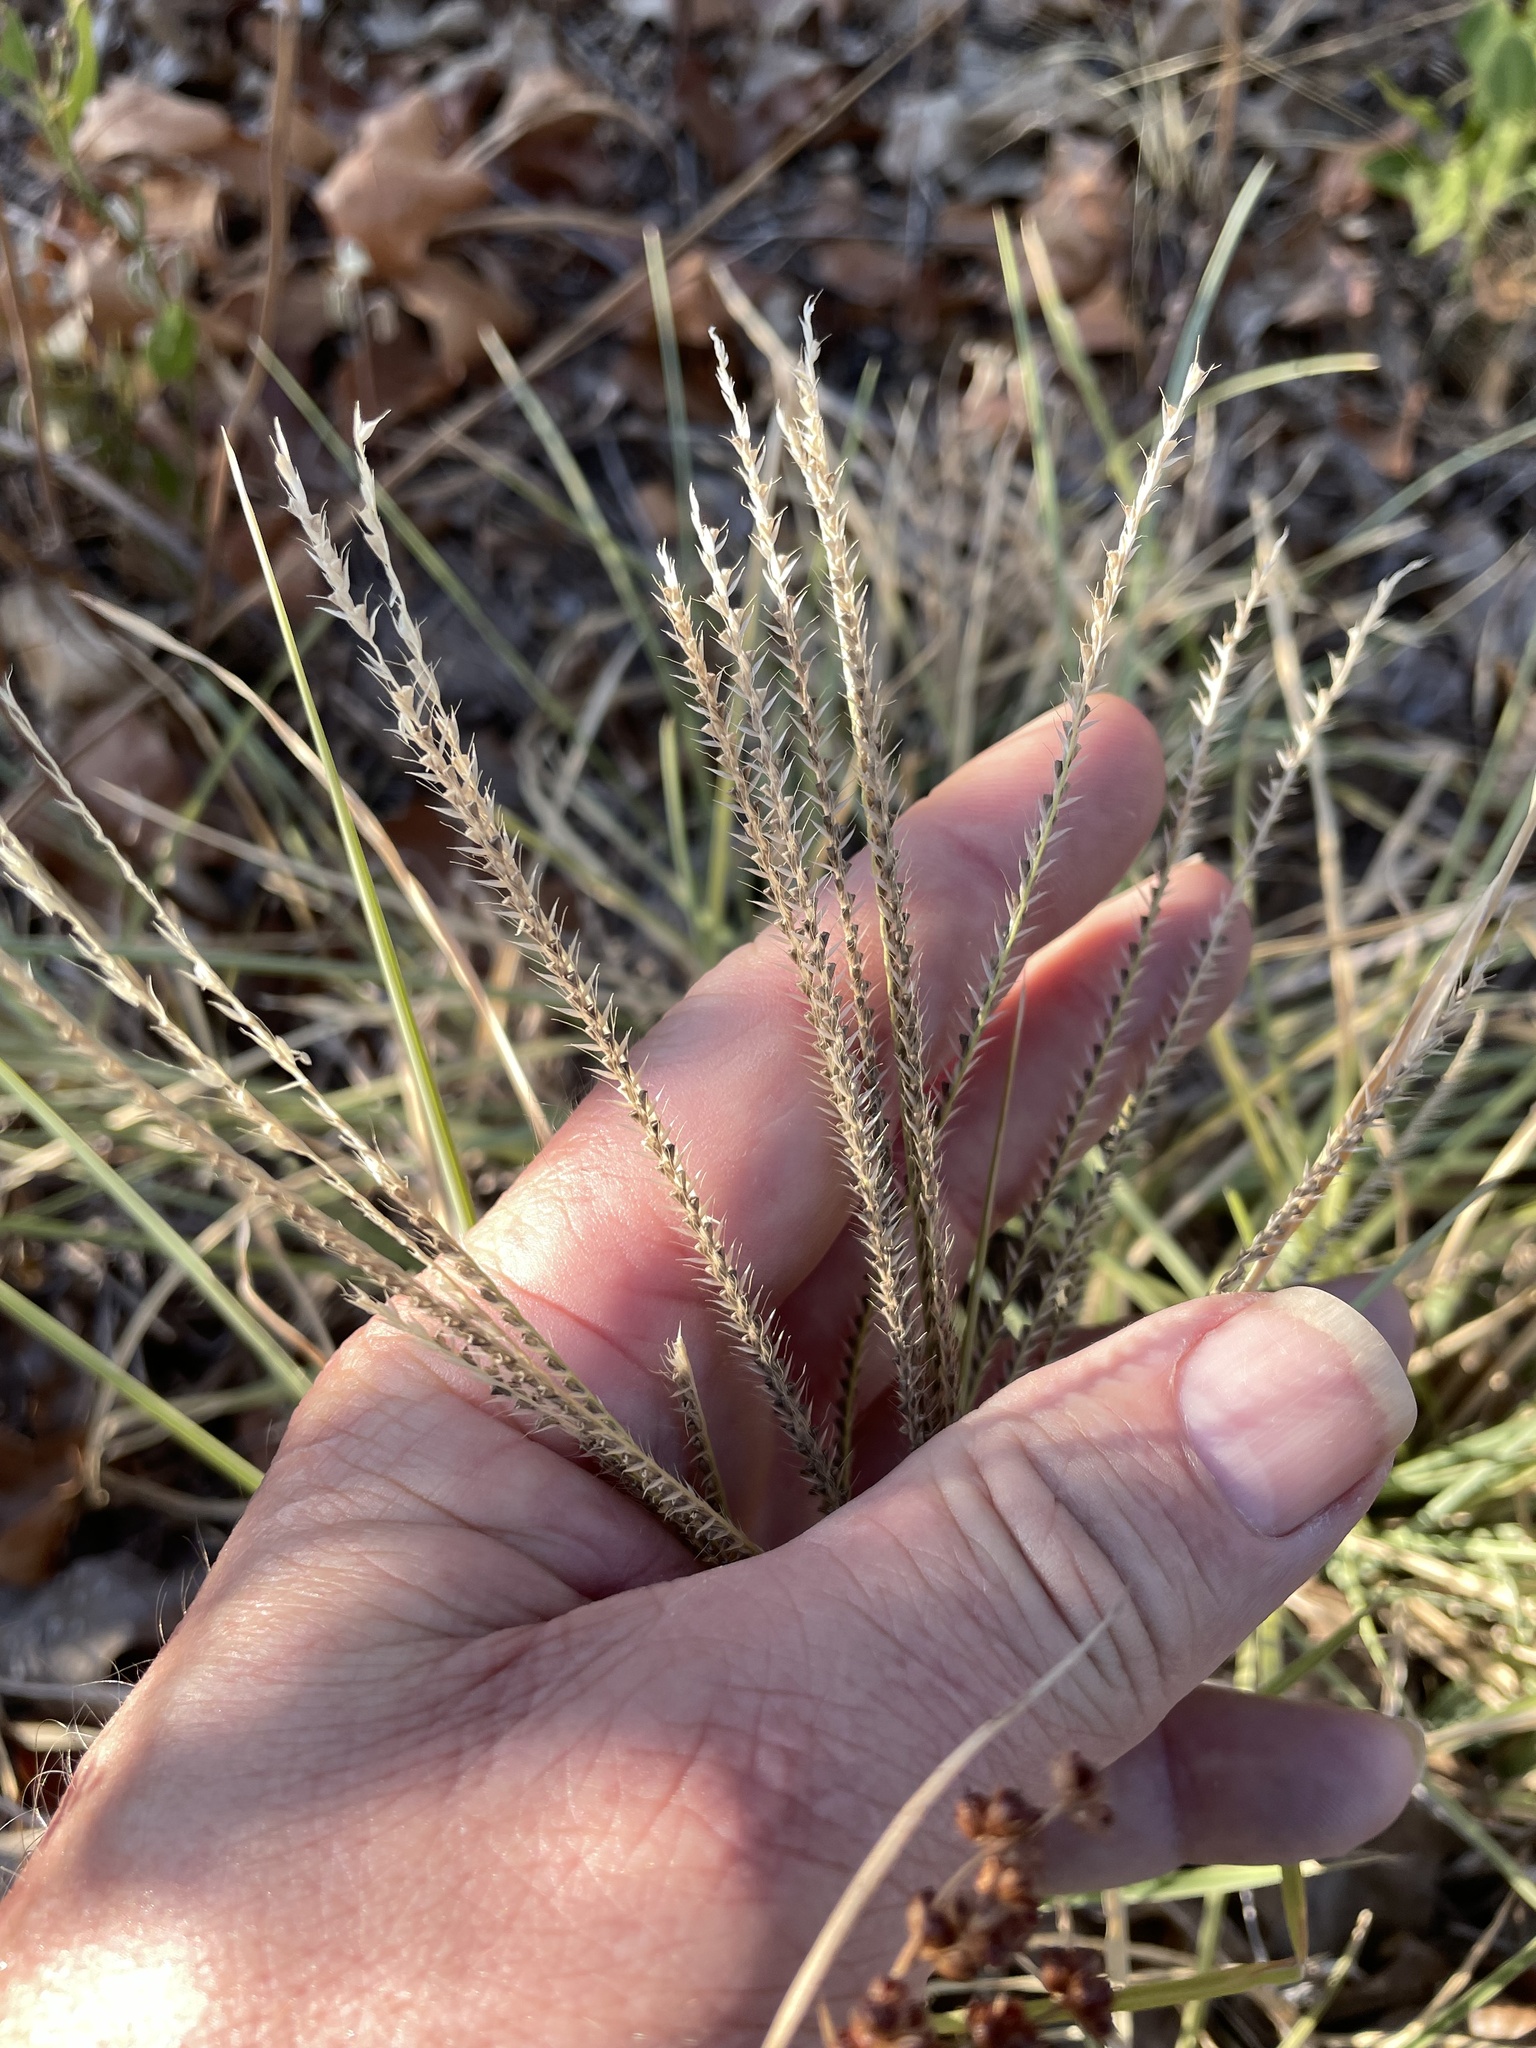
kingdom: Plantae
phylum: Tracheophyta
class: Liliopsida
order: Poales
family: Poaceae
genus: Chloris
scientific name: Chloris subdolichostachya
